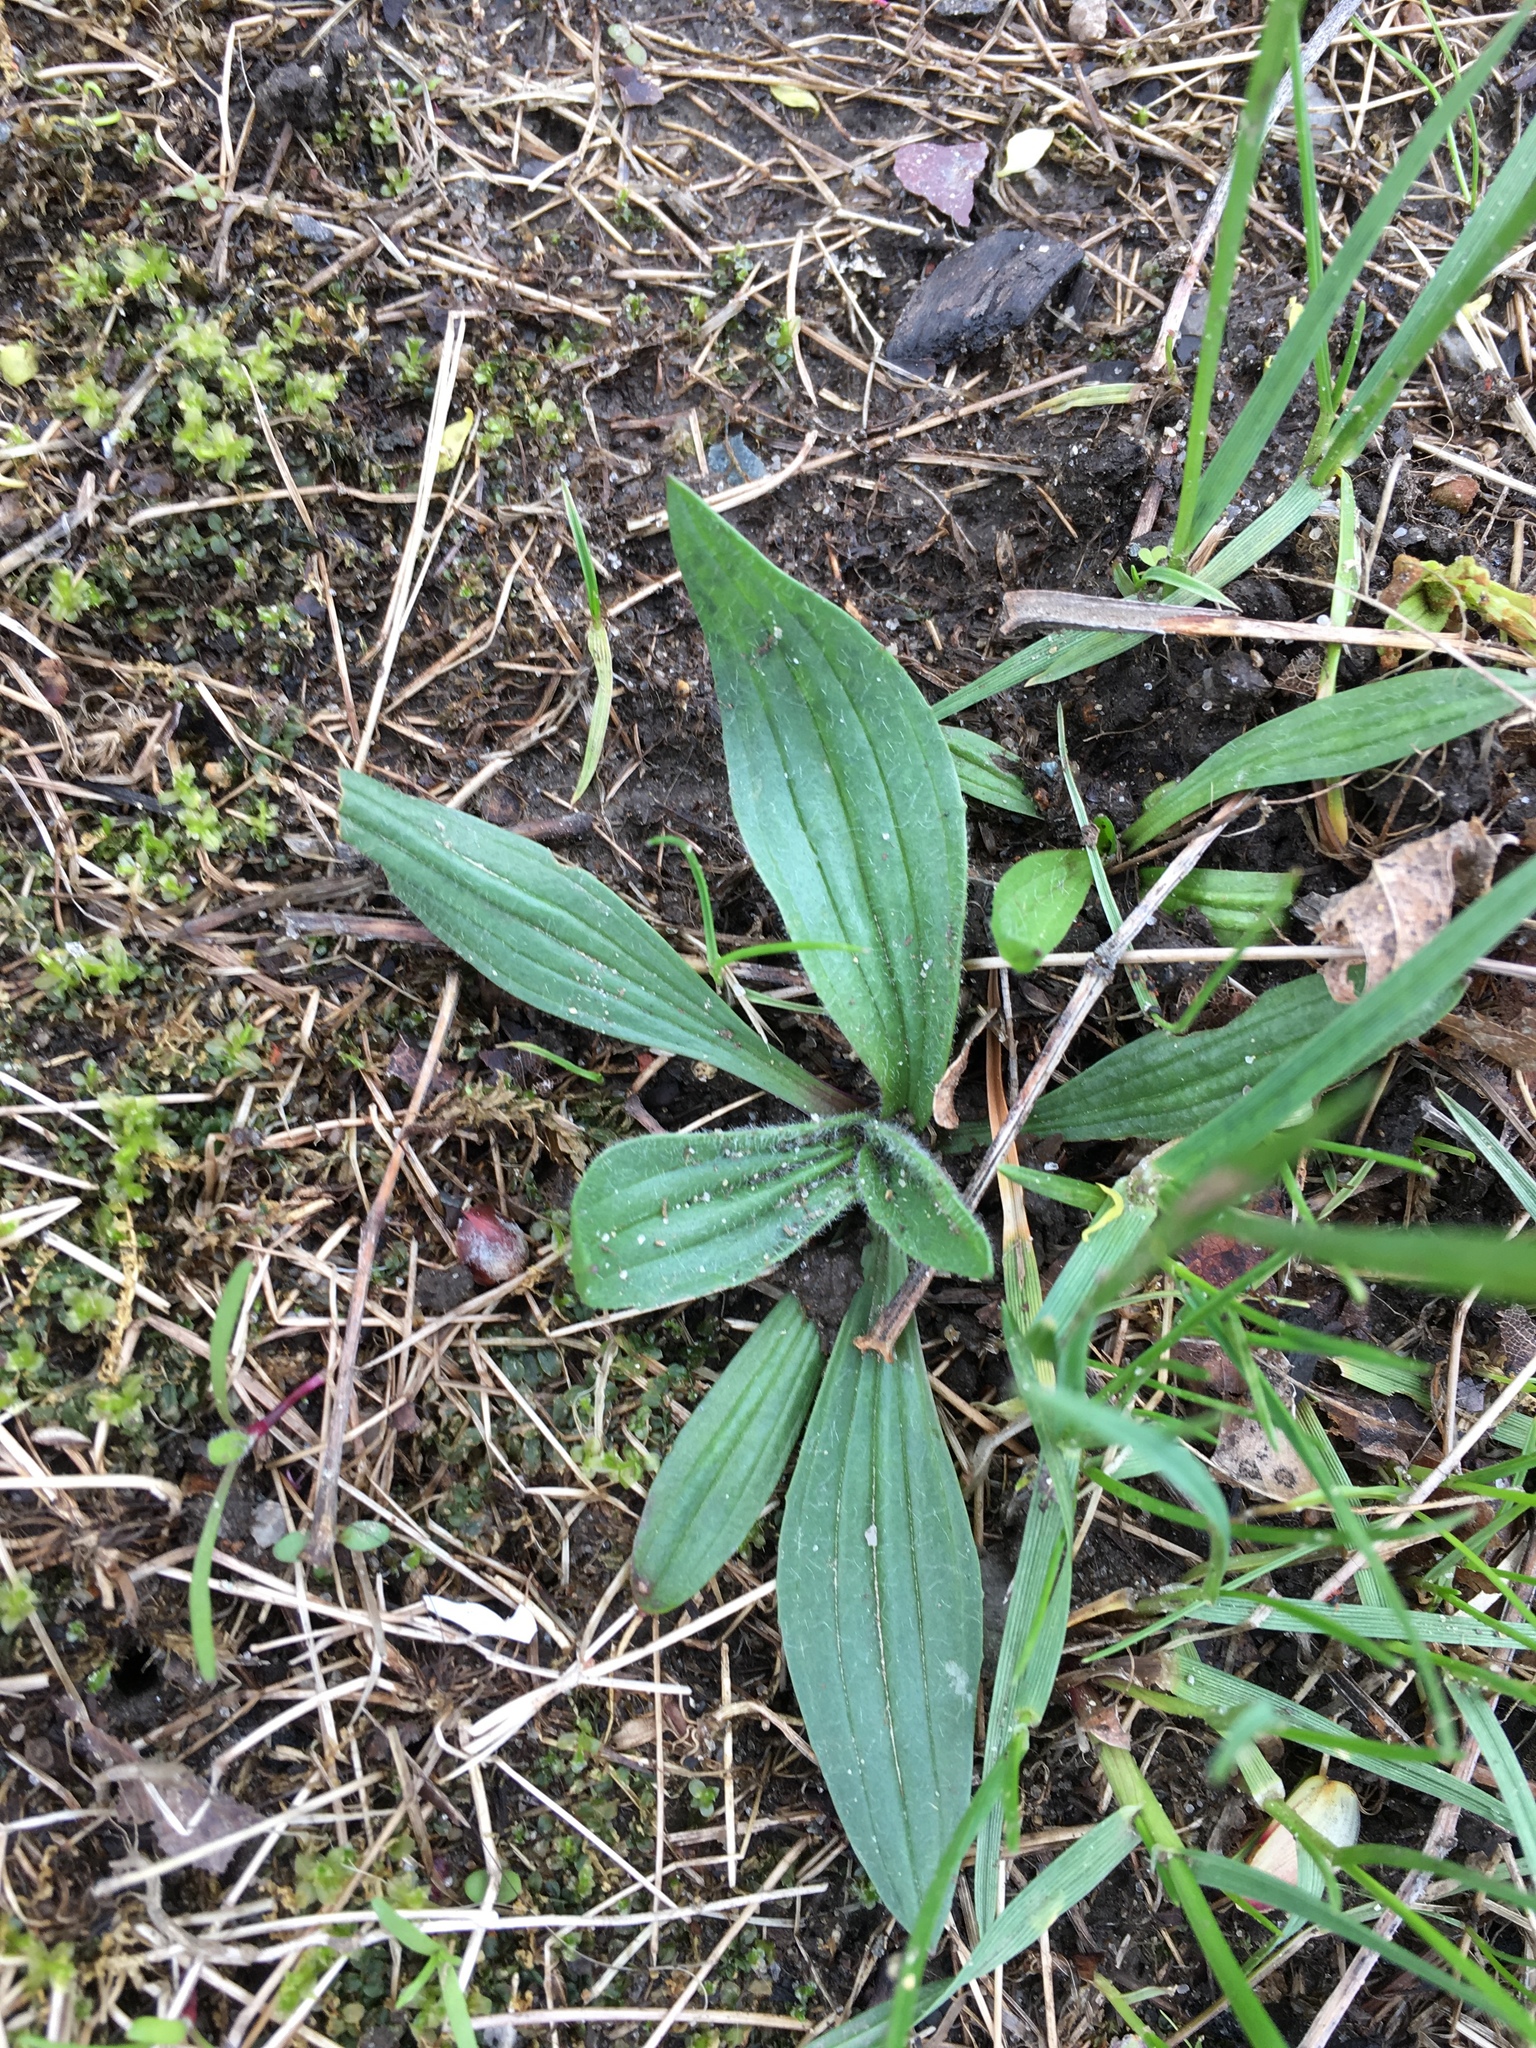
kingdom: Plantae
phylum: Tracheophyta
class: Magnoliopsida
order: Lamiales
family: Plantaginaceae
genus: Plantago
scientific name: Plantago lanceolata
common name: Ribwort plantain
